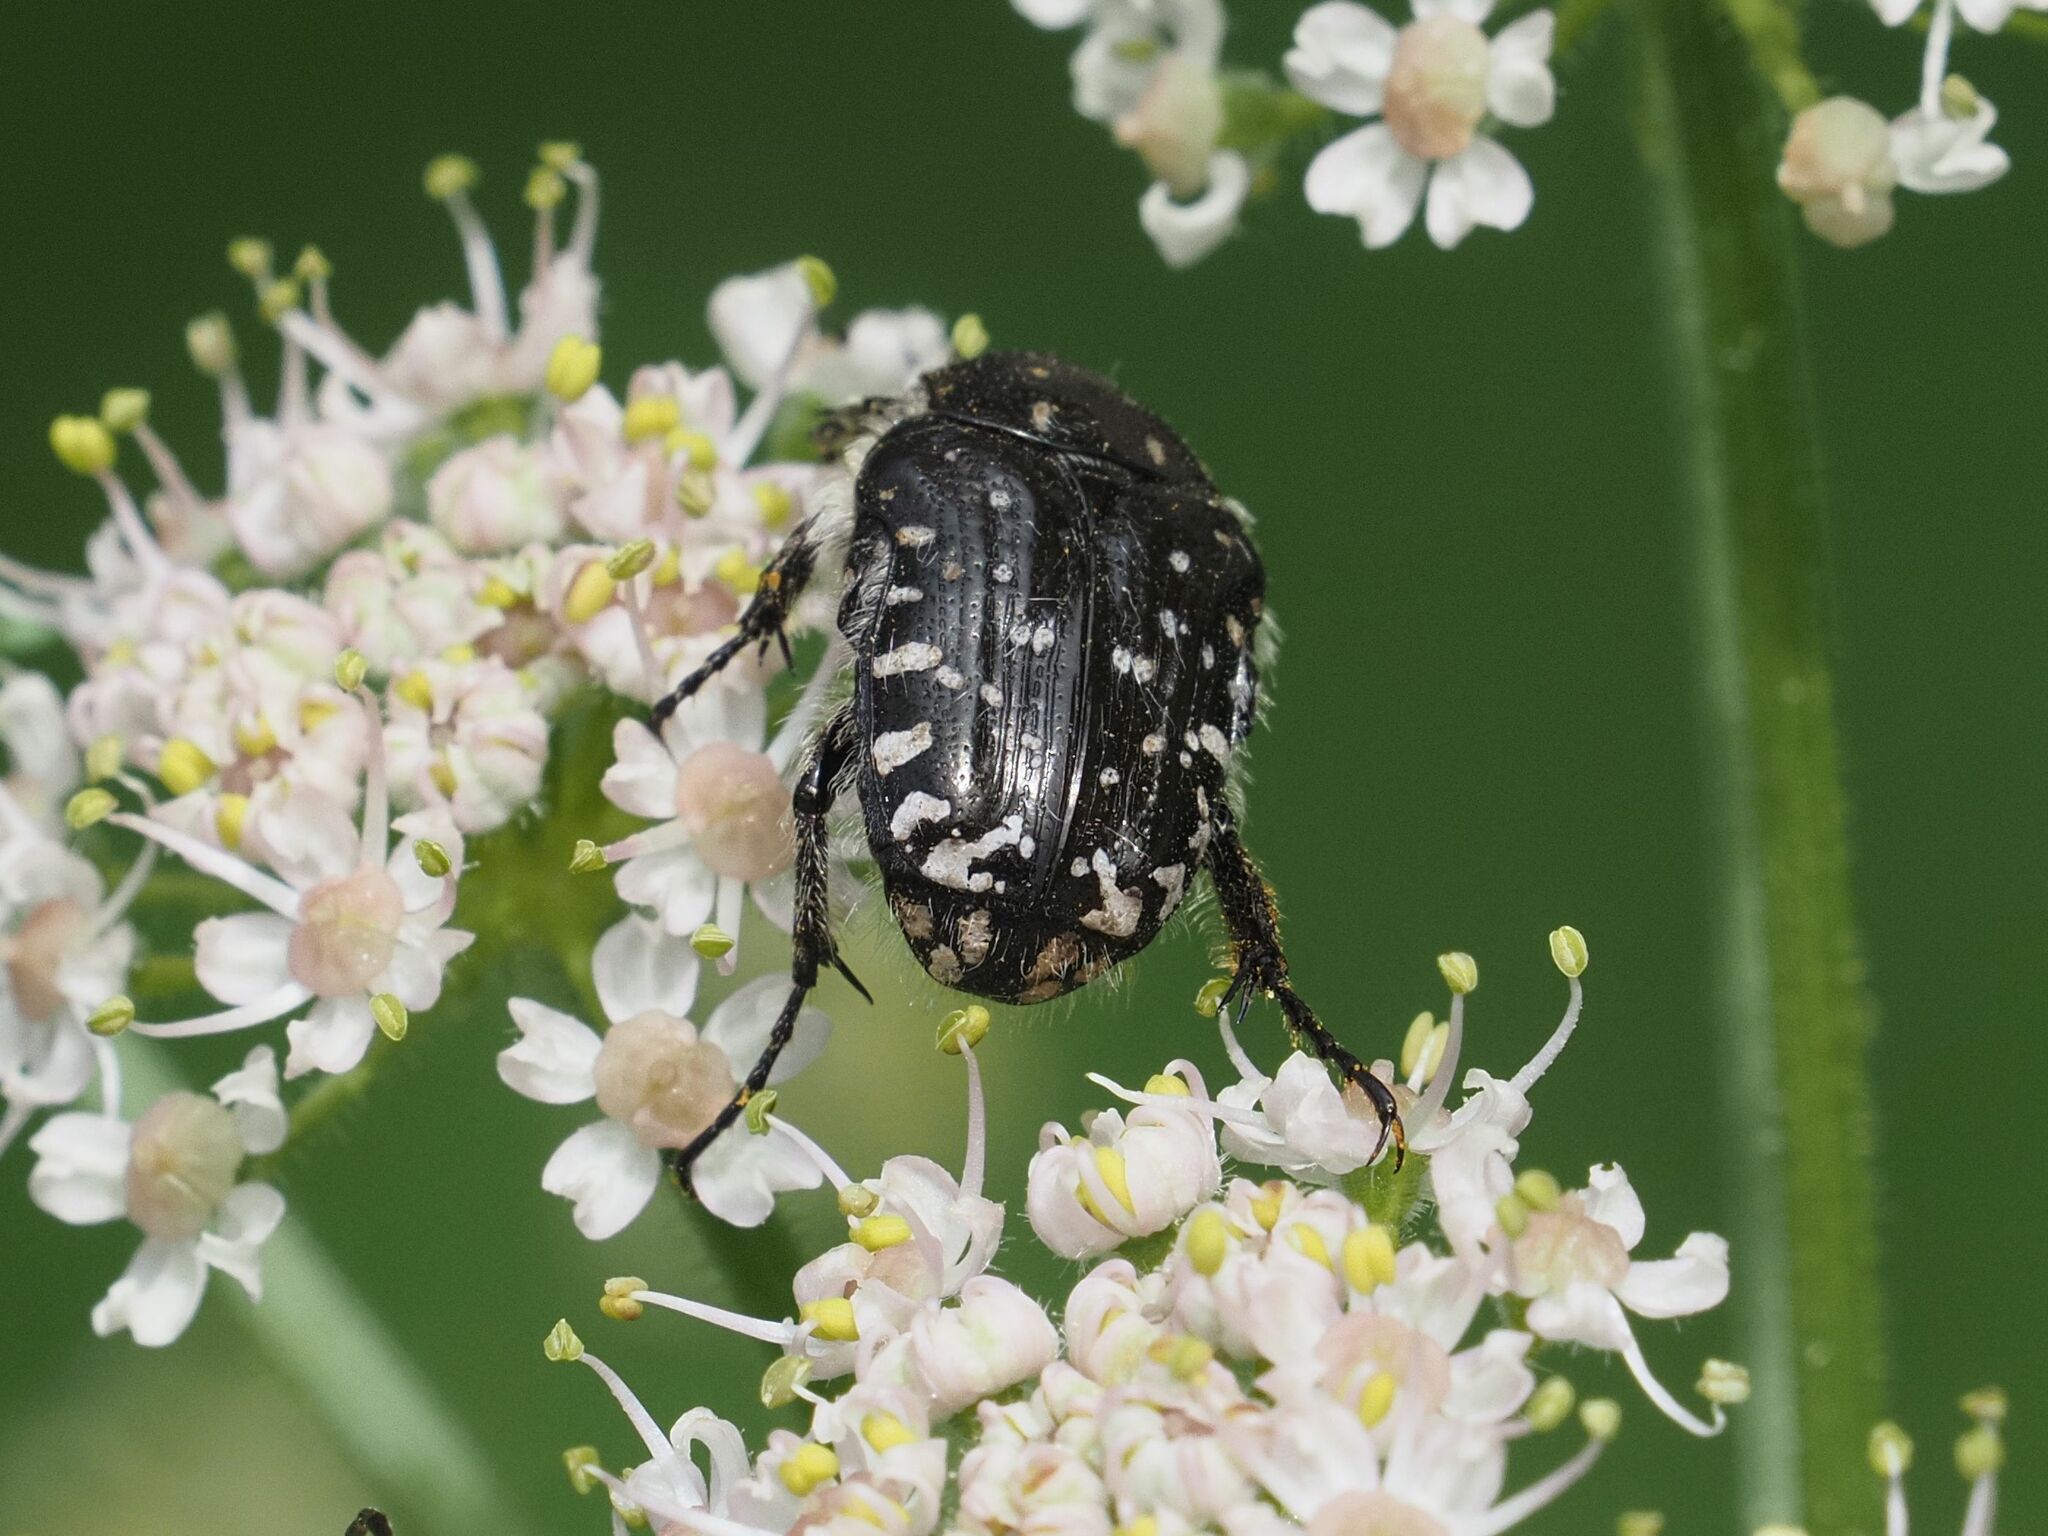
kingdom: Animalia
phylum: Arthropoda
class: Insecta
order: Coleoptera
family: Scarabaeidae
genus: Oxythyrea
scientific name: Oxythyrea funesta
